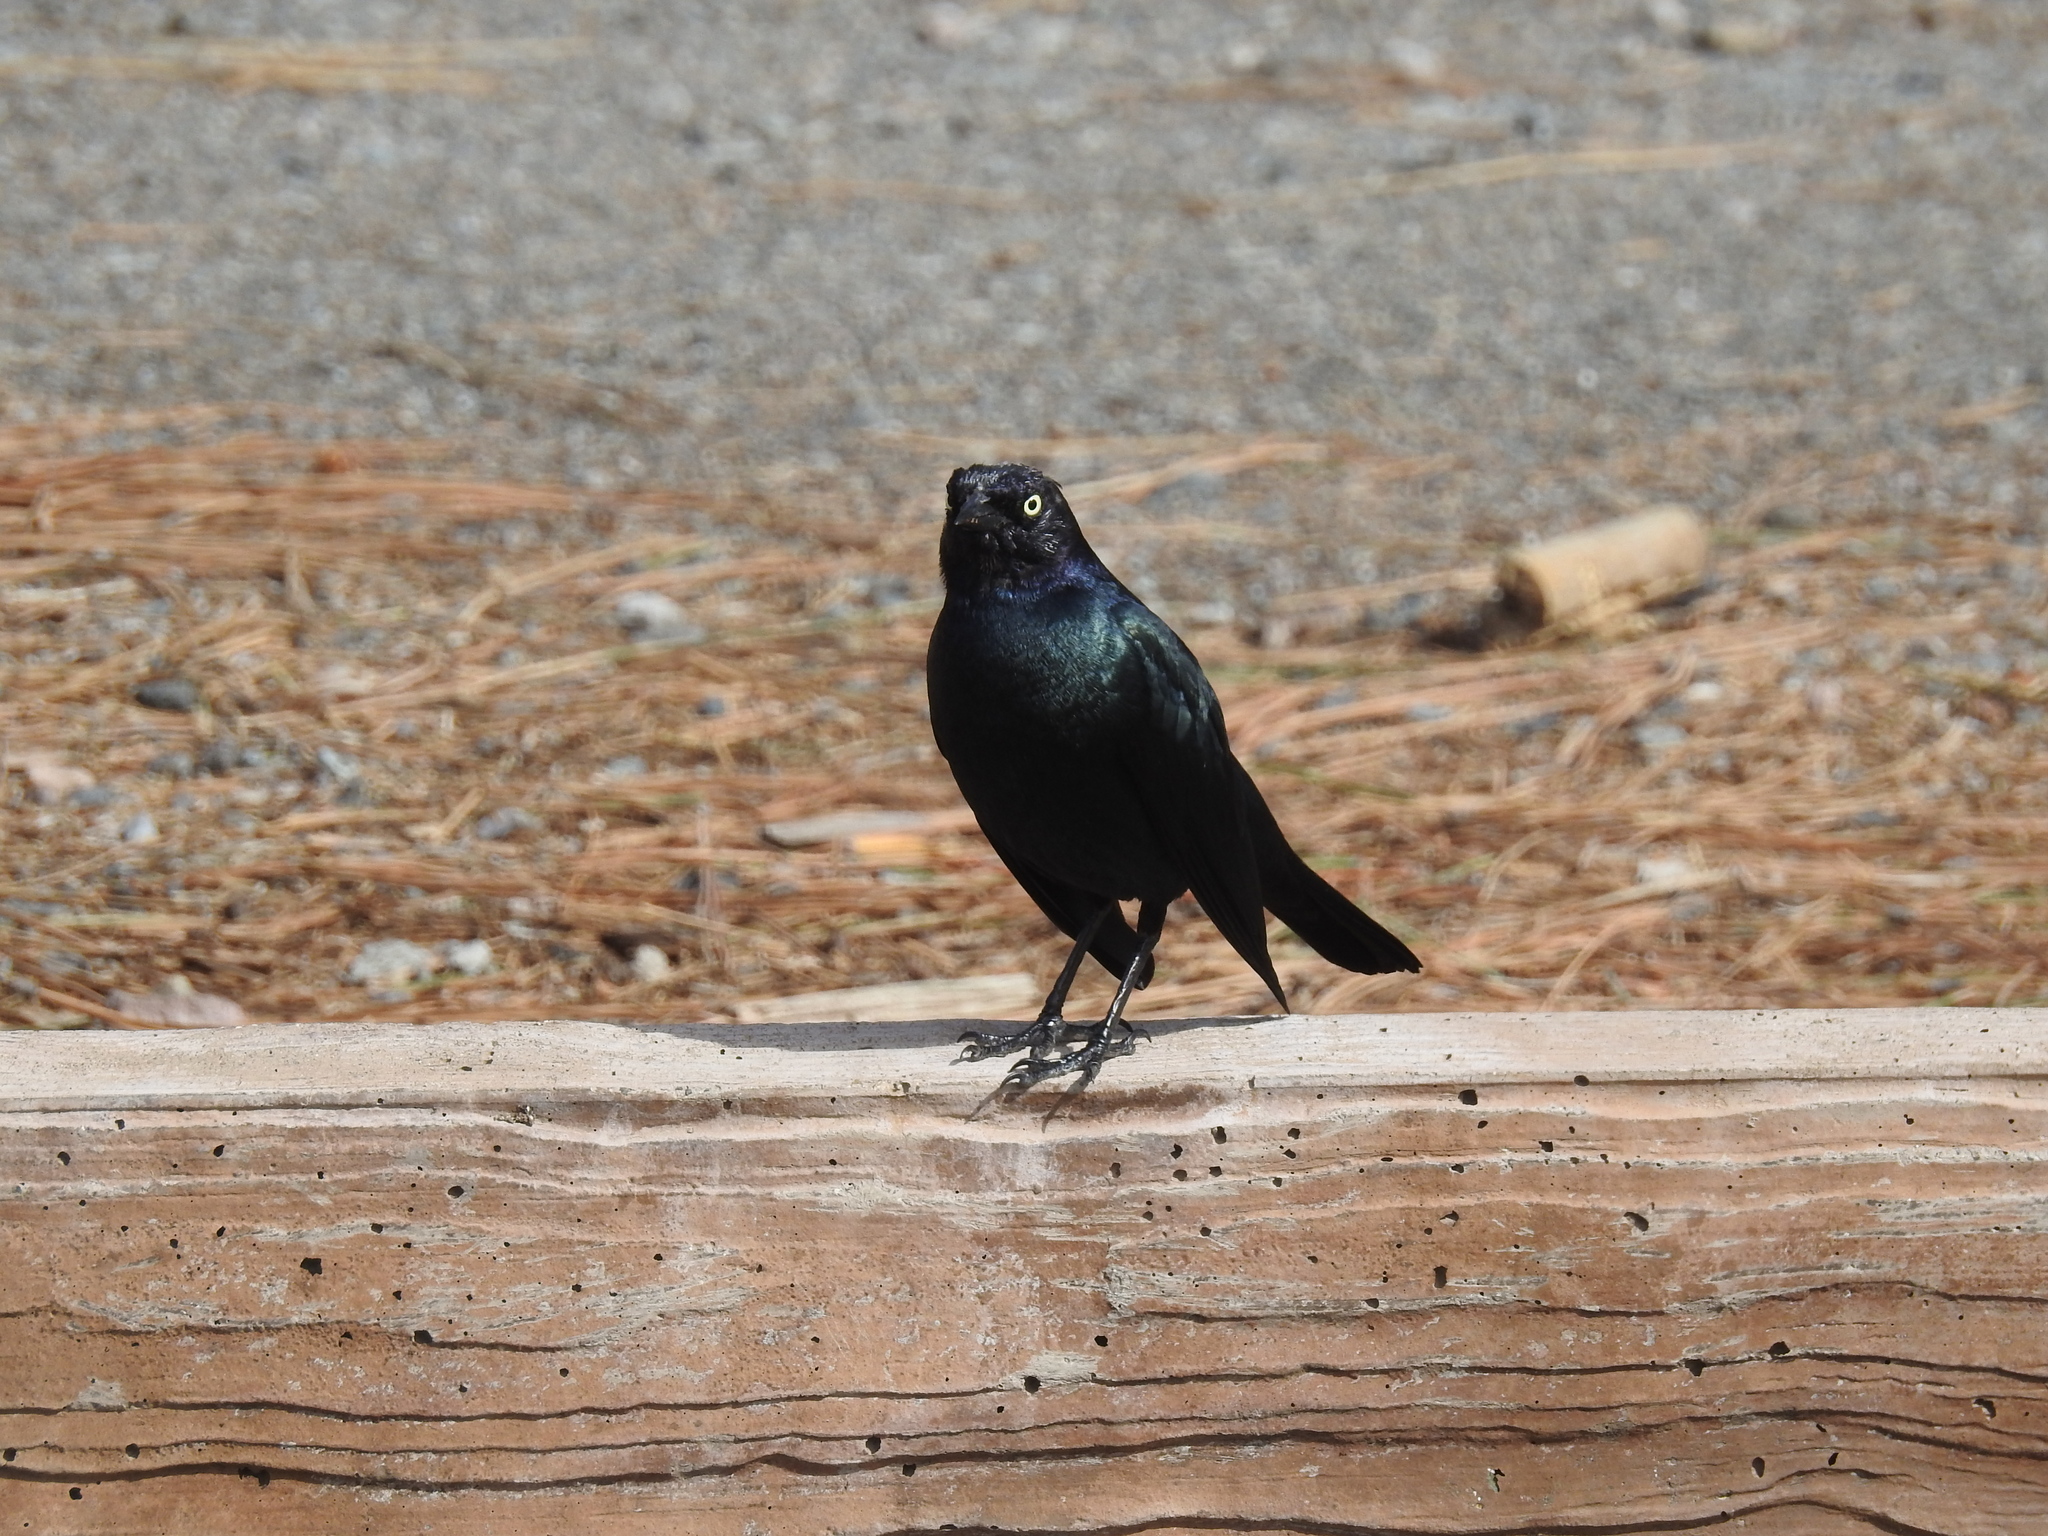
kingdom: Animalia
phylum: Chordata
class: Aves
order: Passeriformes
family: Icteridae
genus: Euphagus
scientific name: Euphagus cyanocephalus
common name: Brewer's blackbird
